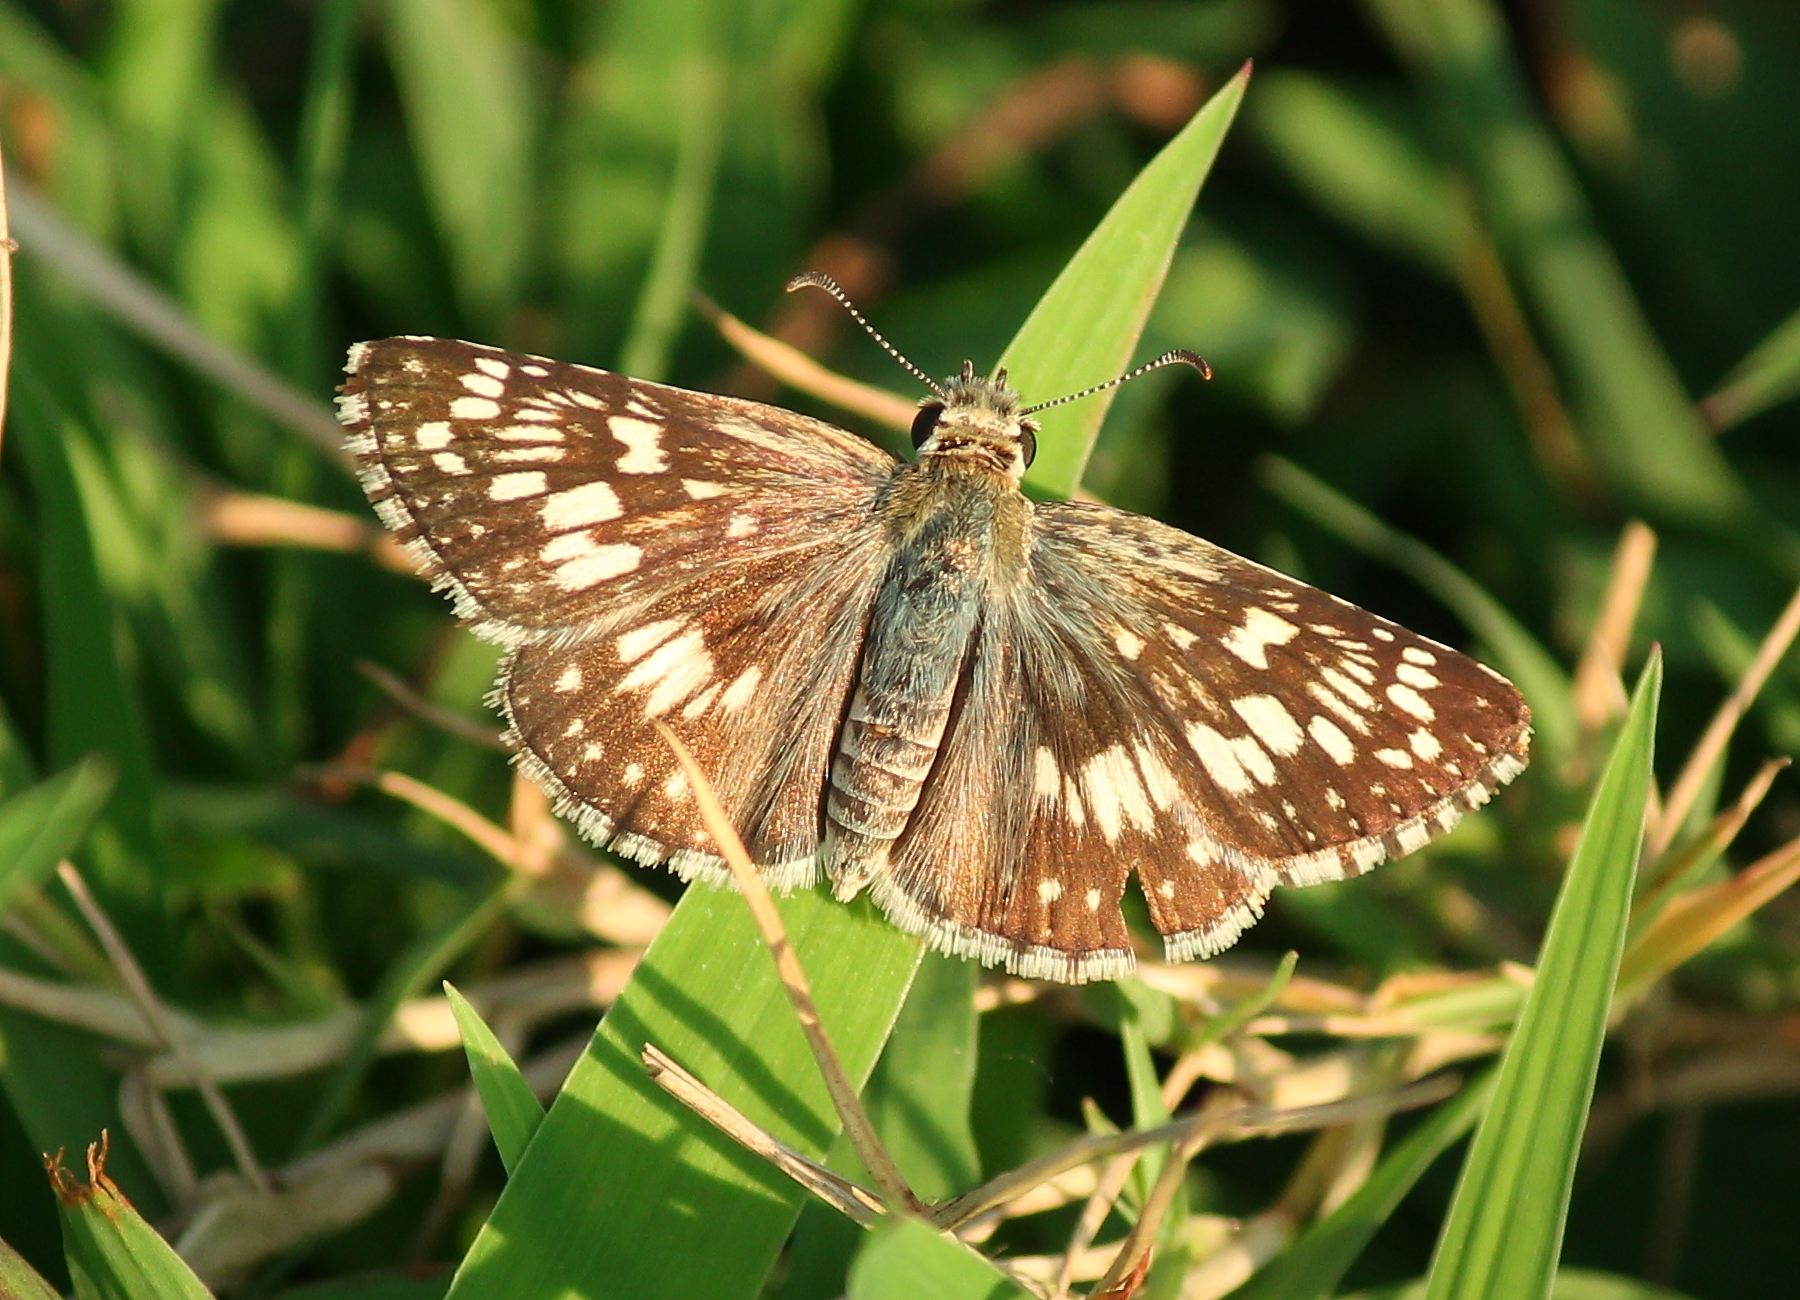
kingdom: Animalia
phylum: Arthropoda
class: Insecta
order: Lepidoptera
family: Hesperiidae
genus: Burnsius
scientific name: Burnsius communis
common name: Common checkered-skipper
